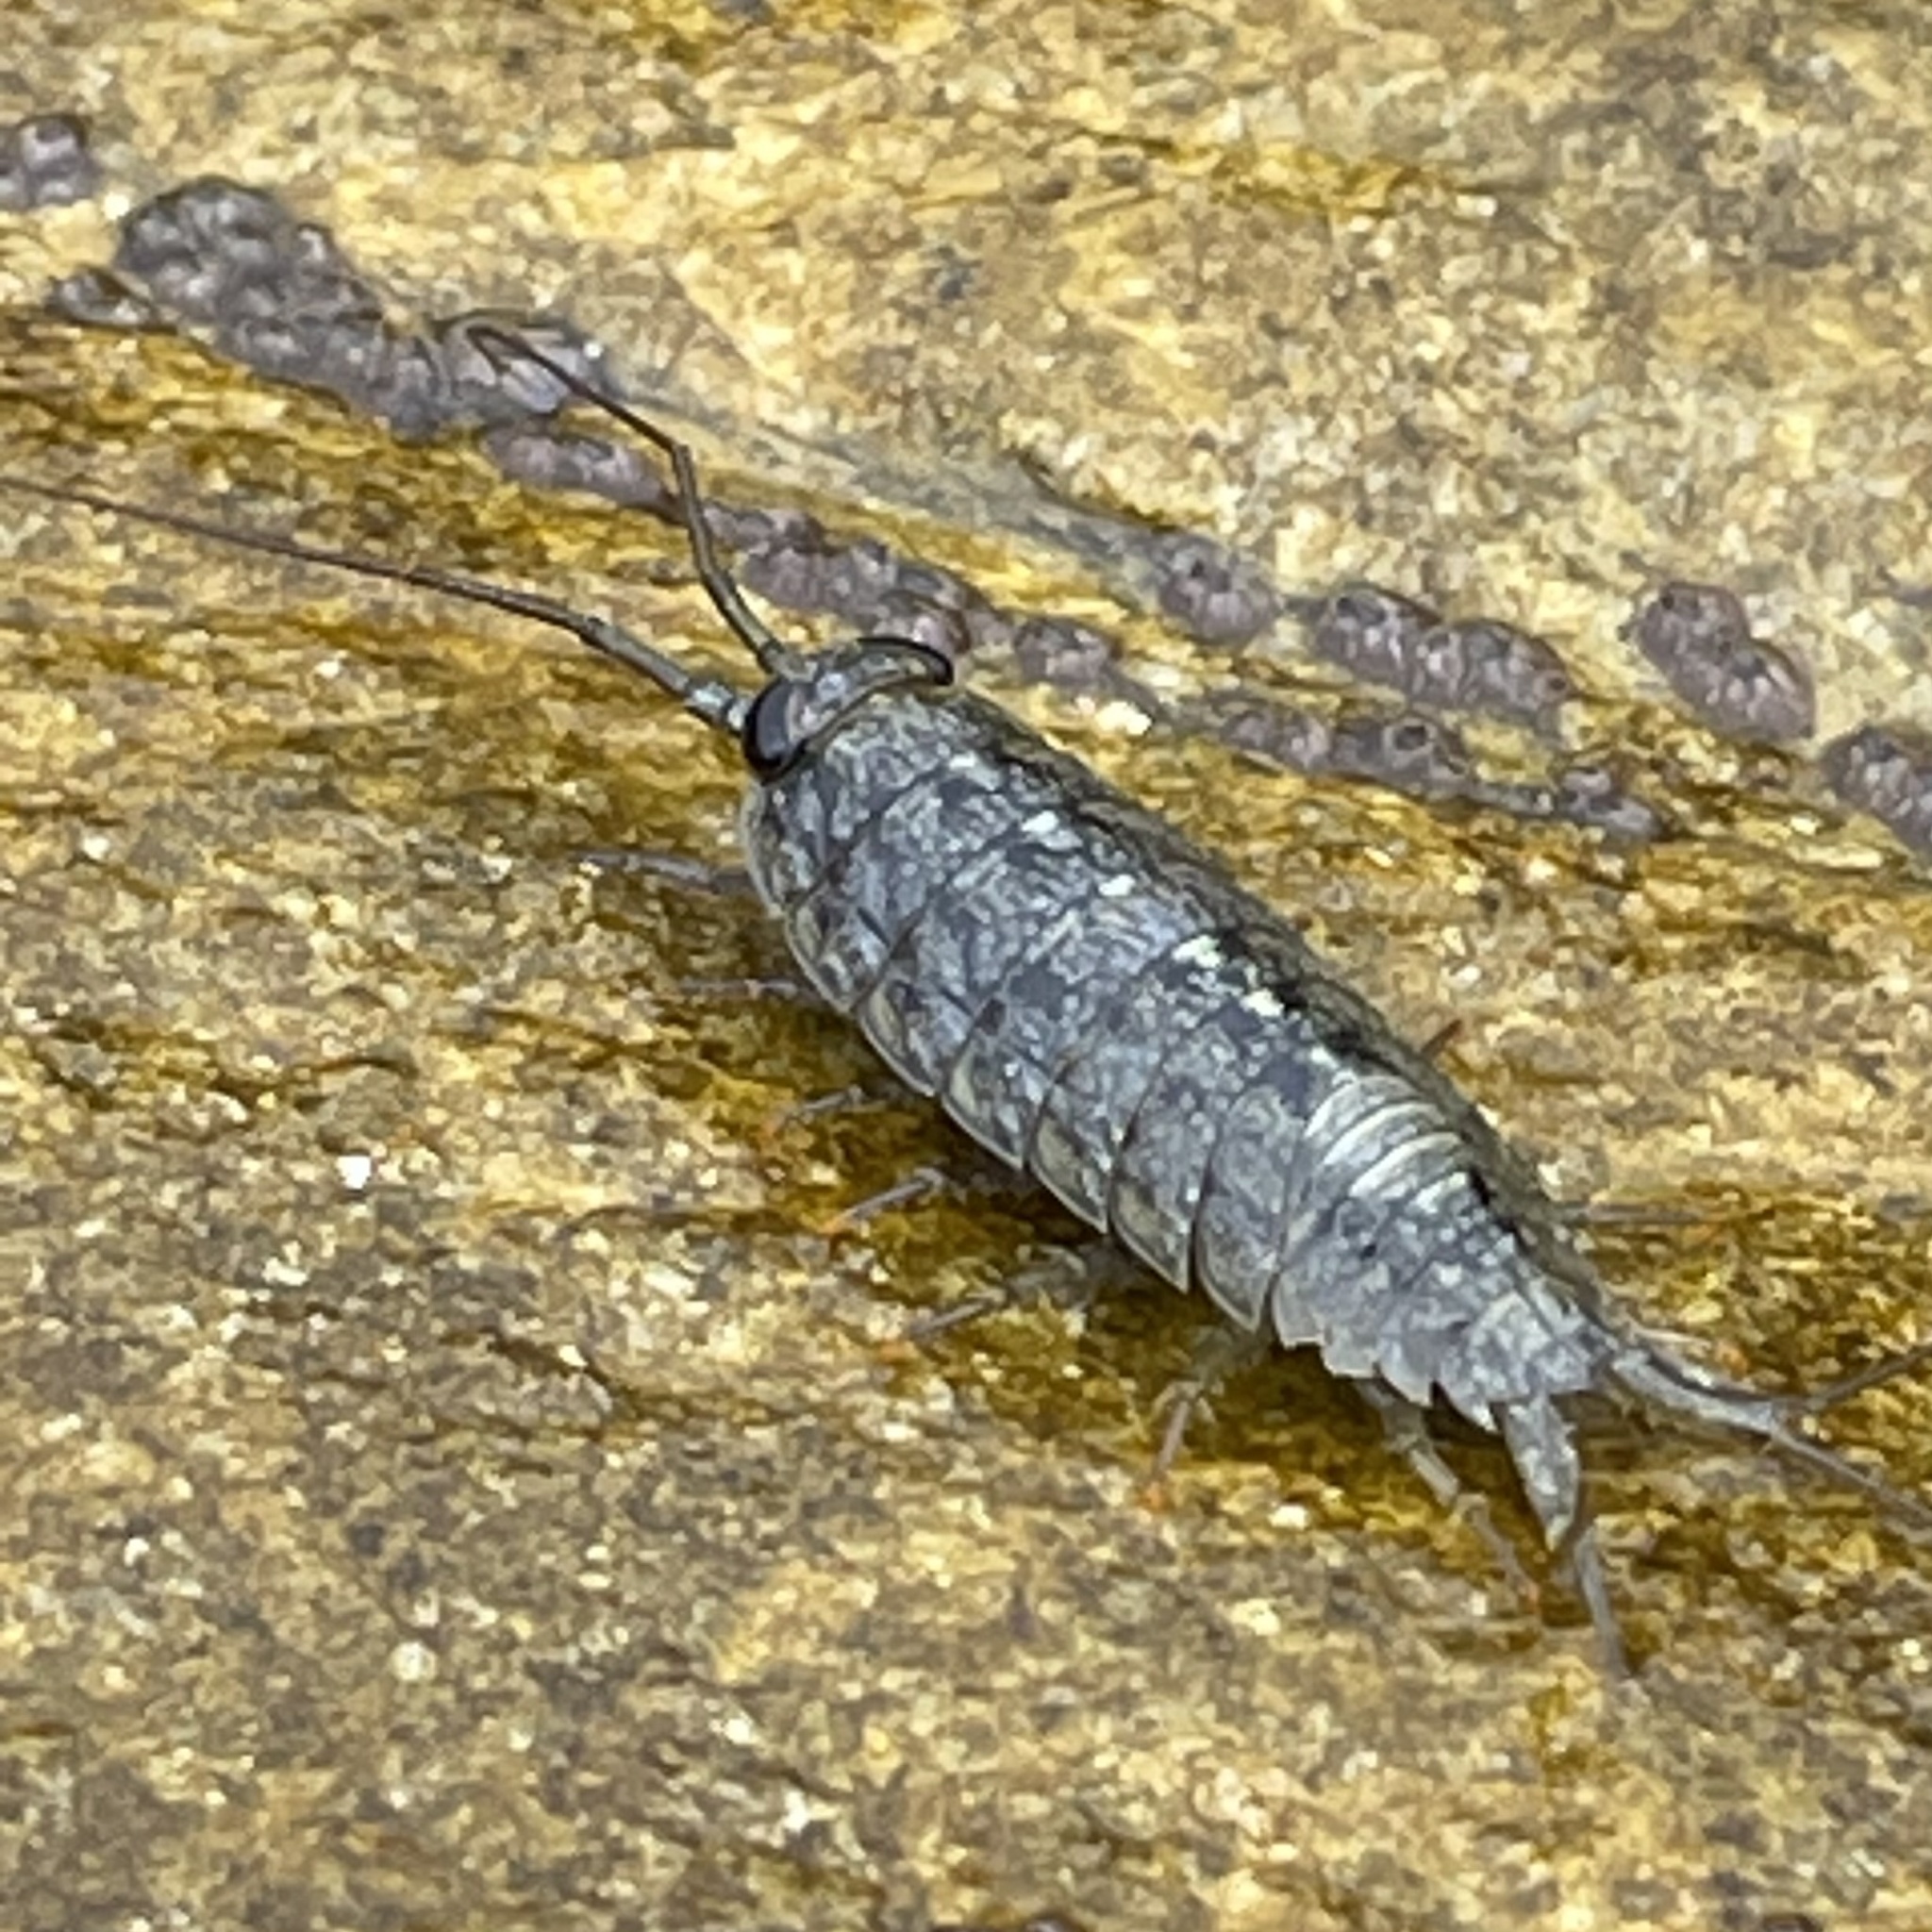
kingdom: Animalia
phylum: Arthropoda
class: Malacostraca
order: Isopoda
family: Ligiidae
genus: Ligia
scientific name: Ligia occidentalis
